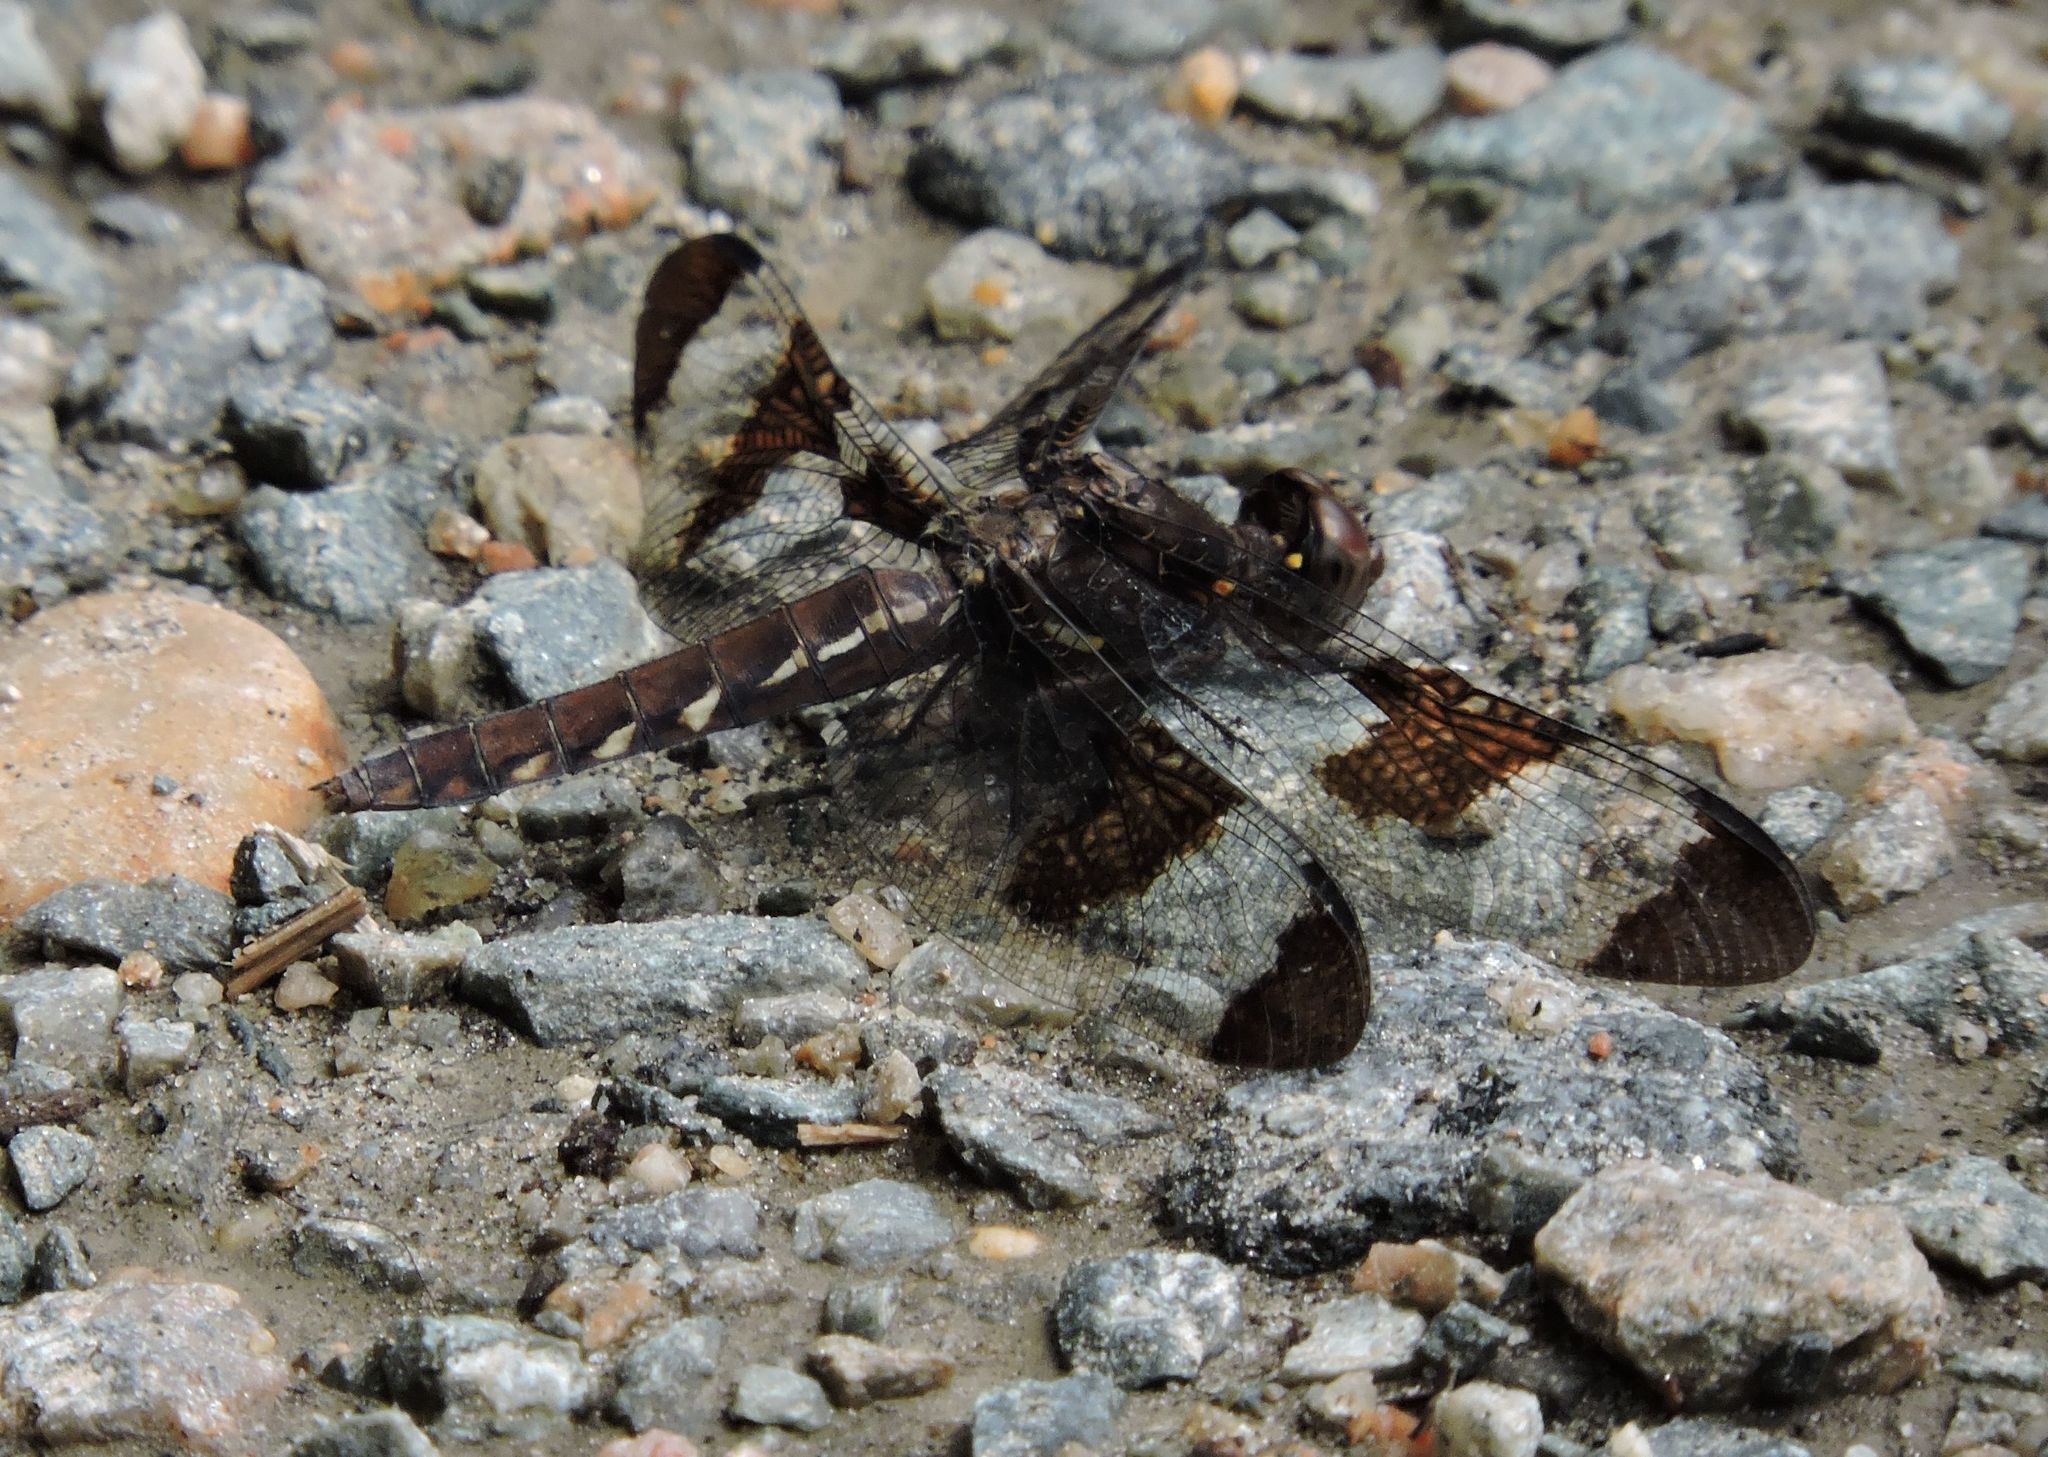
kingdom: Animalia
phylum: Arthropoda
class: Insecta
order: Odonata
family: Libellulidae
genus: Plathemis
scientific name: Plathemis lydia
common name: Common whitetail
